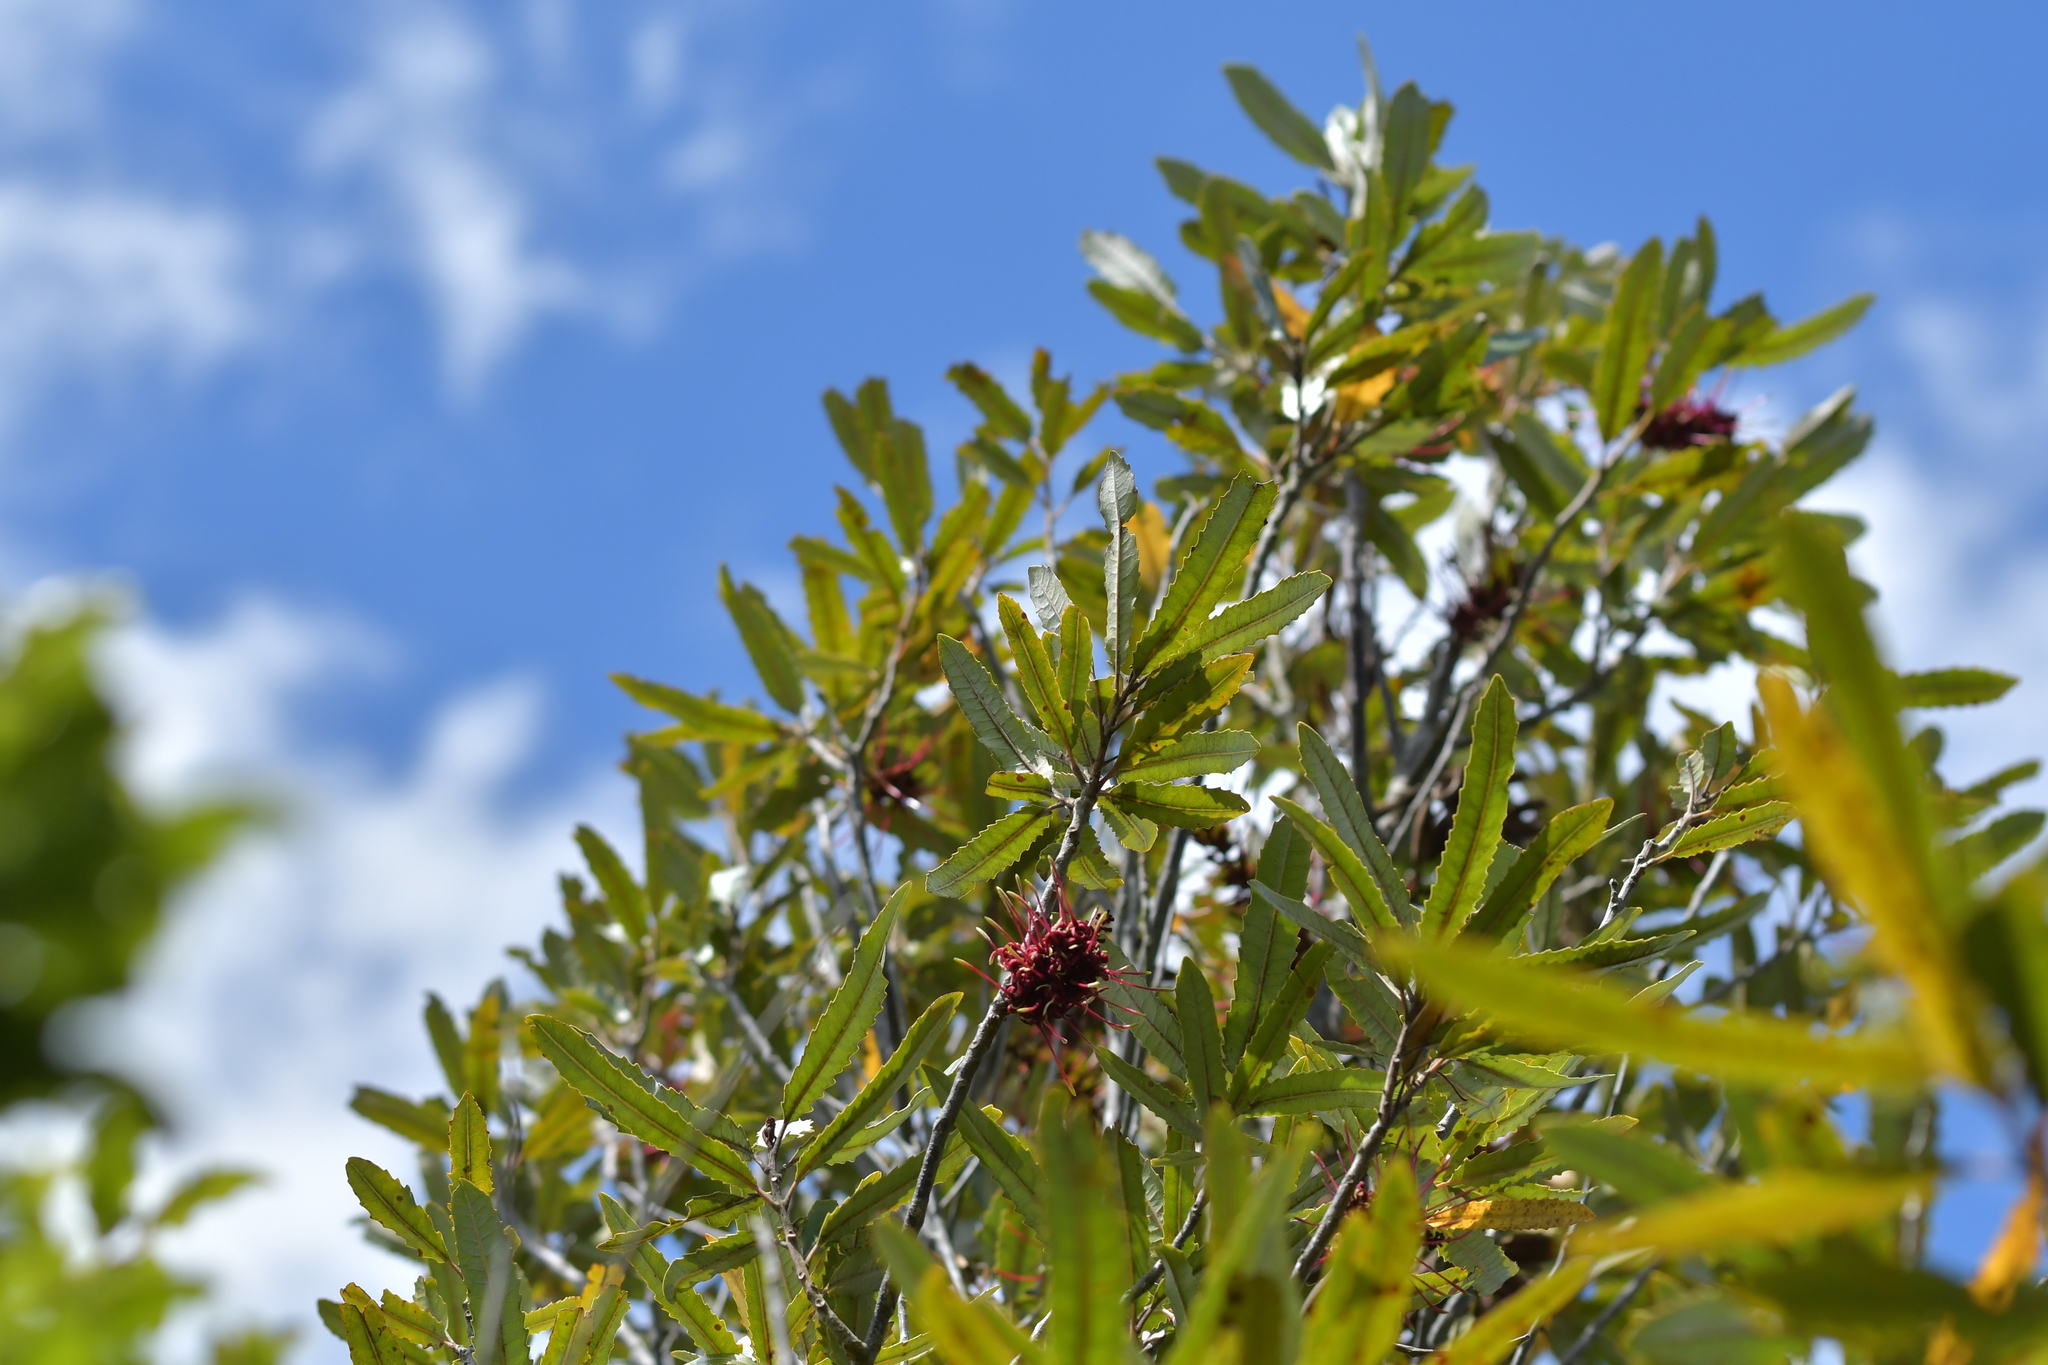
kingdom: Plantae
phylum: Tracheophyta
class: Magnoliopsida
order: Proteales
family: Proteaceae
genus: Knightia
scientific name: Knightia excelsa
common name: New zealand-honeysuckle
